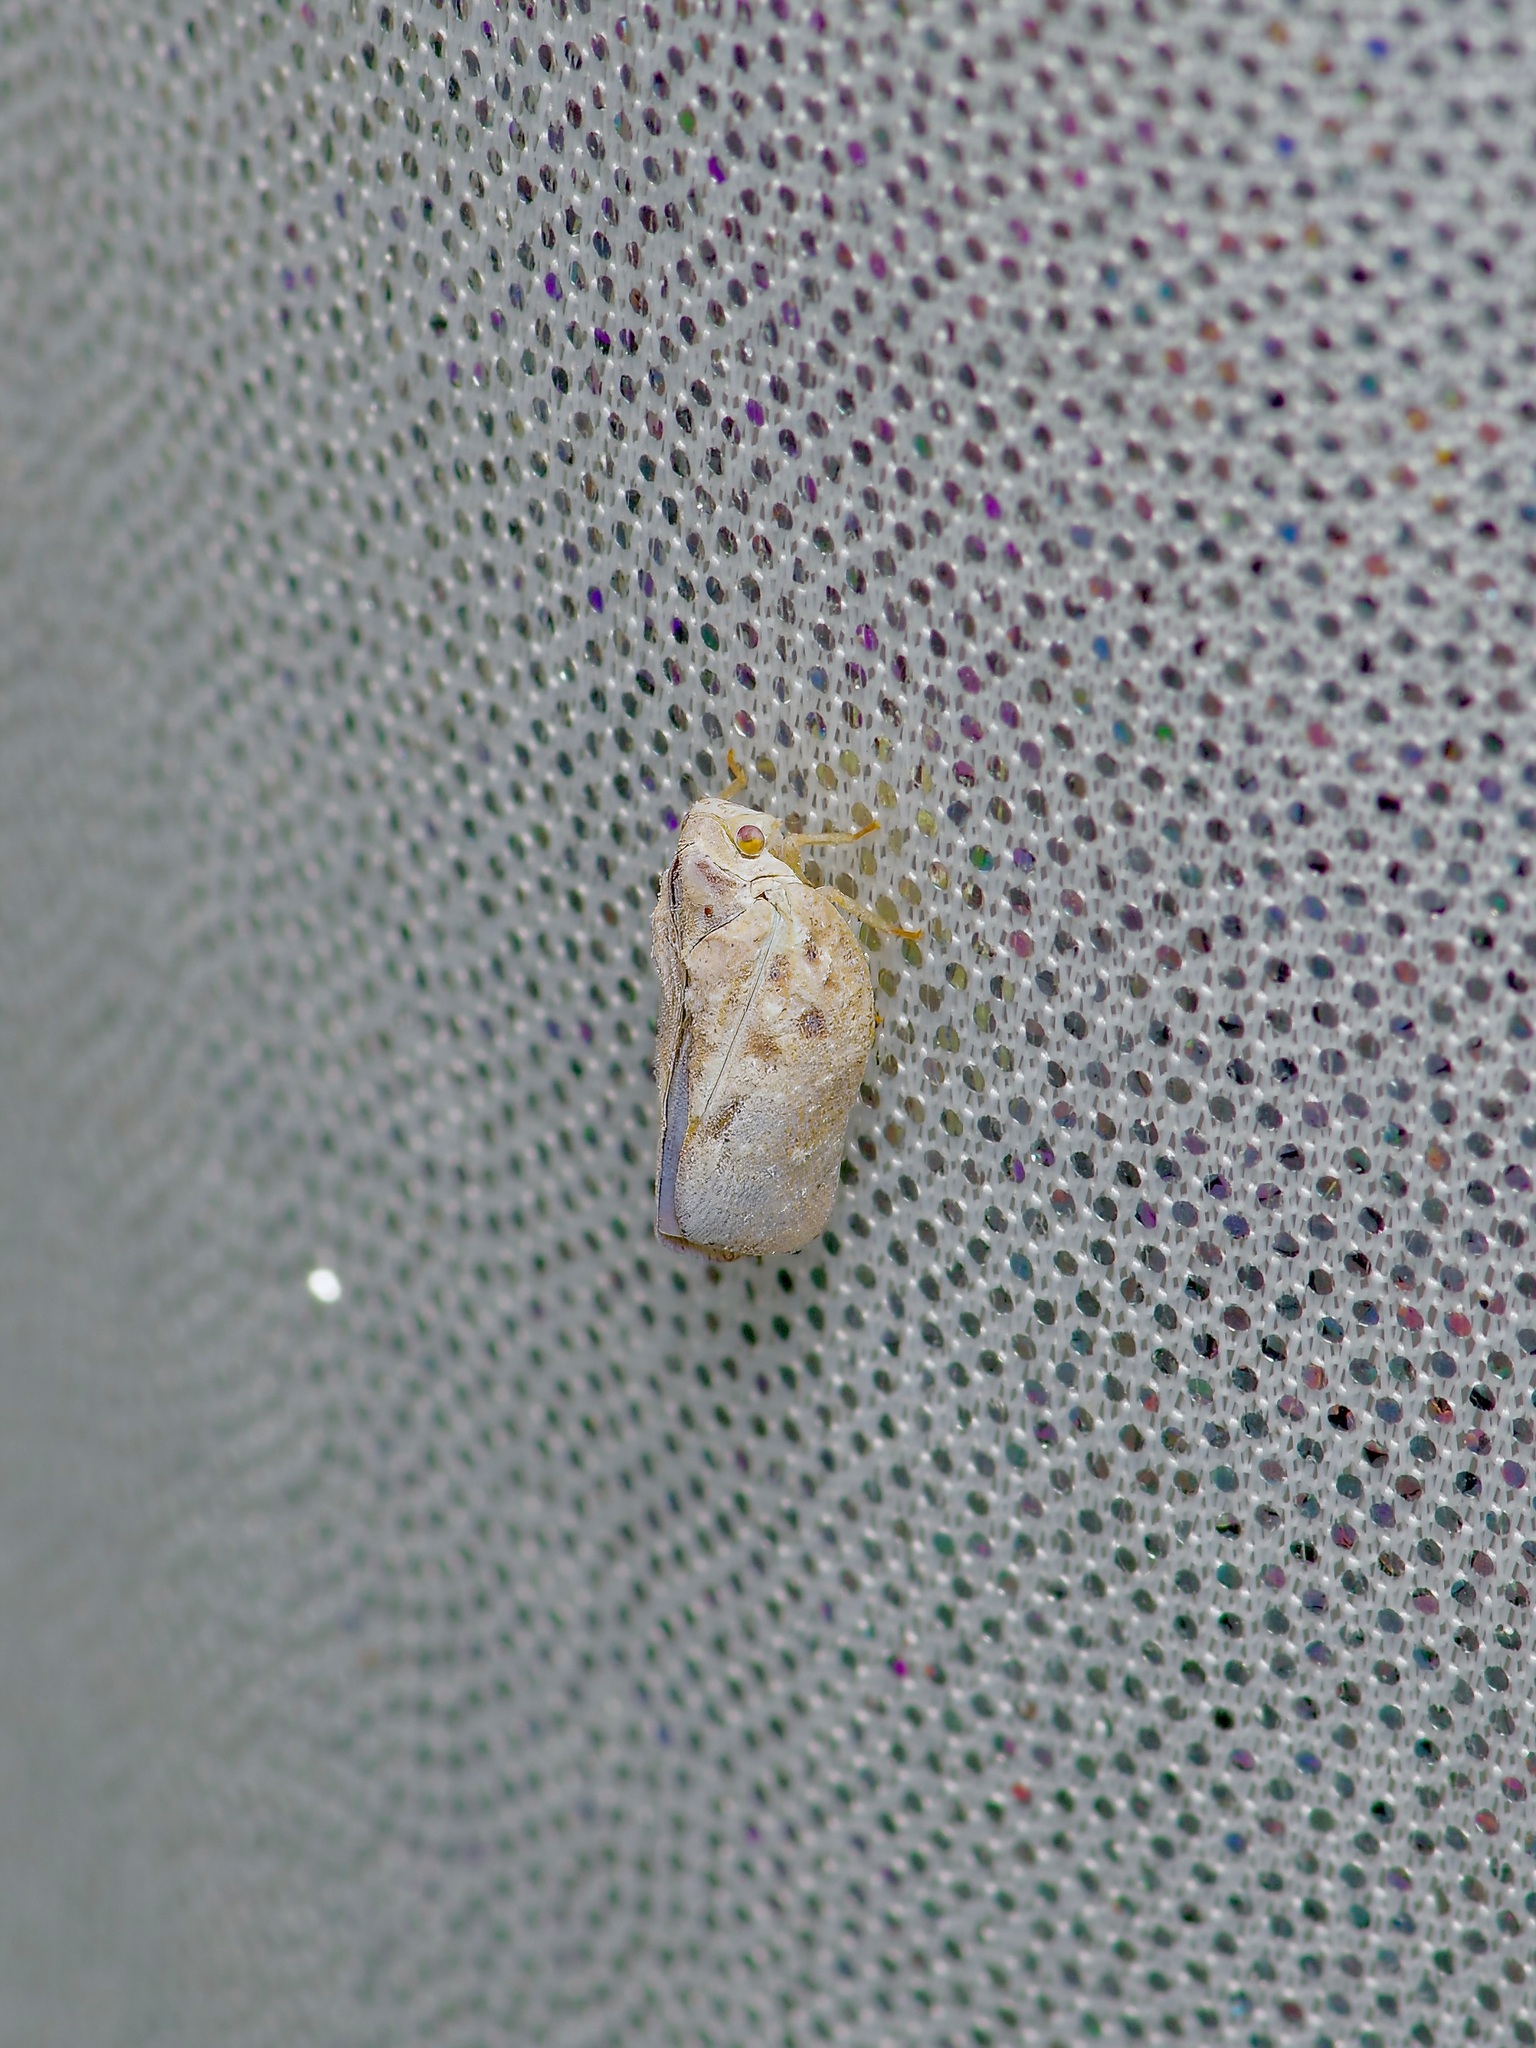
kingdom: Animalia
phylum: Arthropoda
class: Insecta
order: Hemiptera
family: Flatidae
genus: Metcalfa
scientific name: Metcalfa pruinosa
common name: Citrus flatid planthopper
